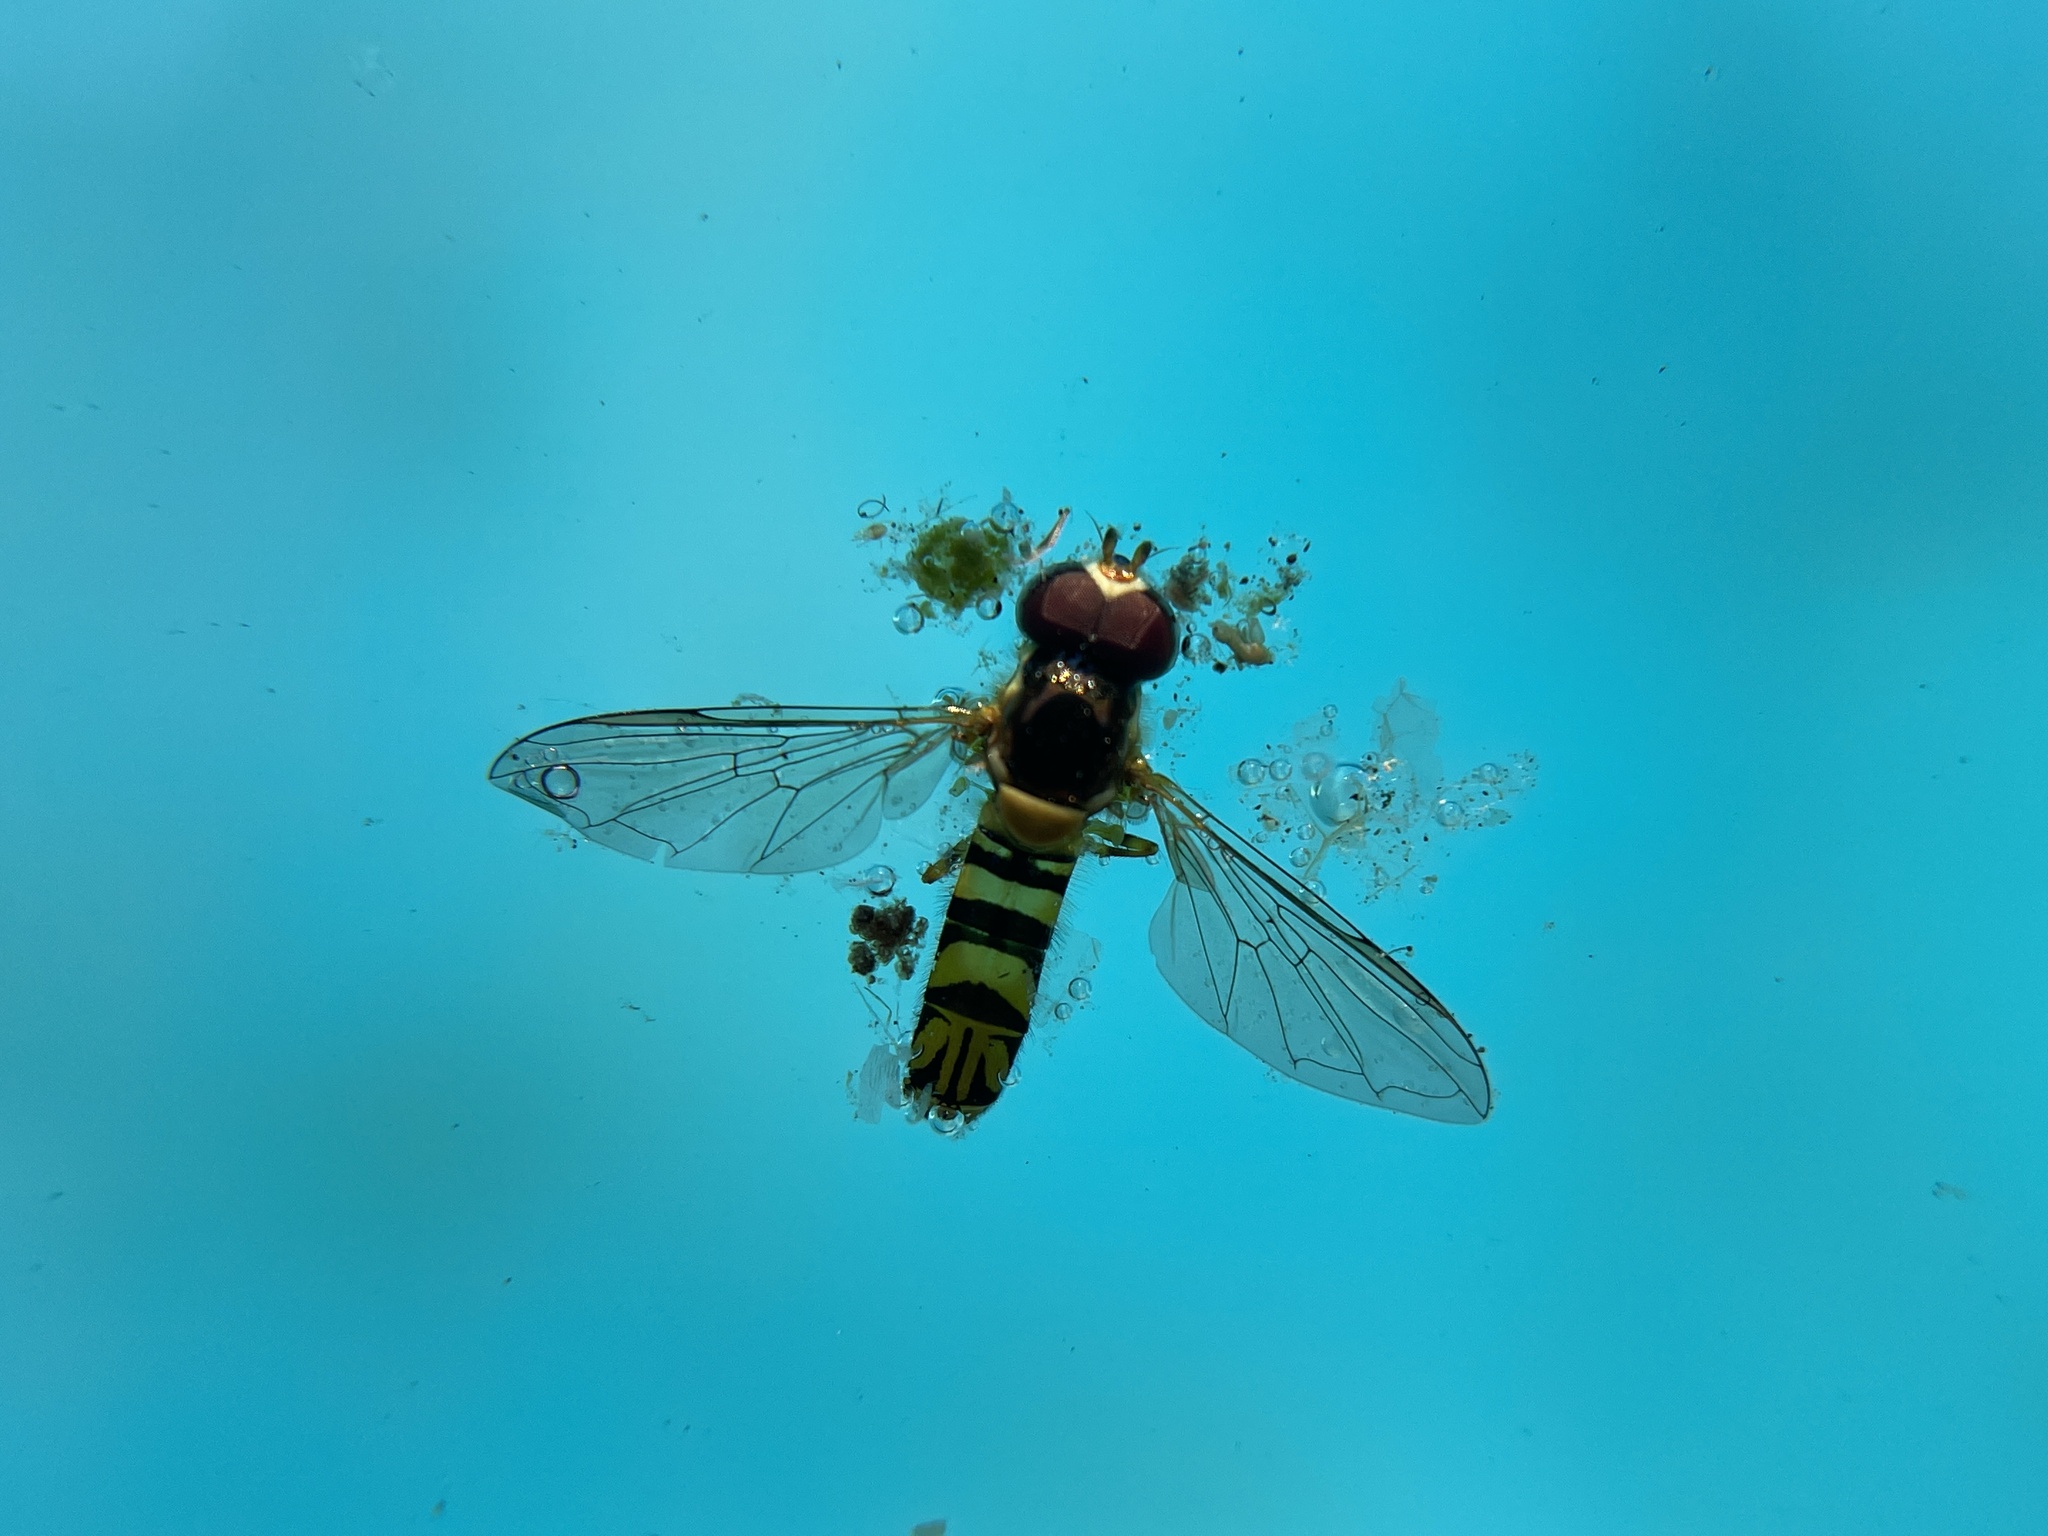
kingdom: Animalia
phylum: Arthropoda
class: Insecta
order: Diptera
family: Syrphidae
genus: Allograpta
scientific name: Allograpta obliqua
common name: Common oblique syrphid
